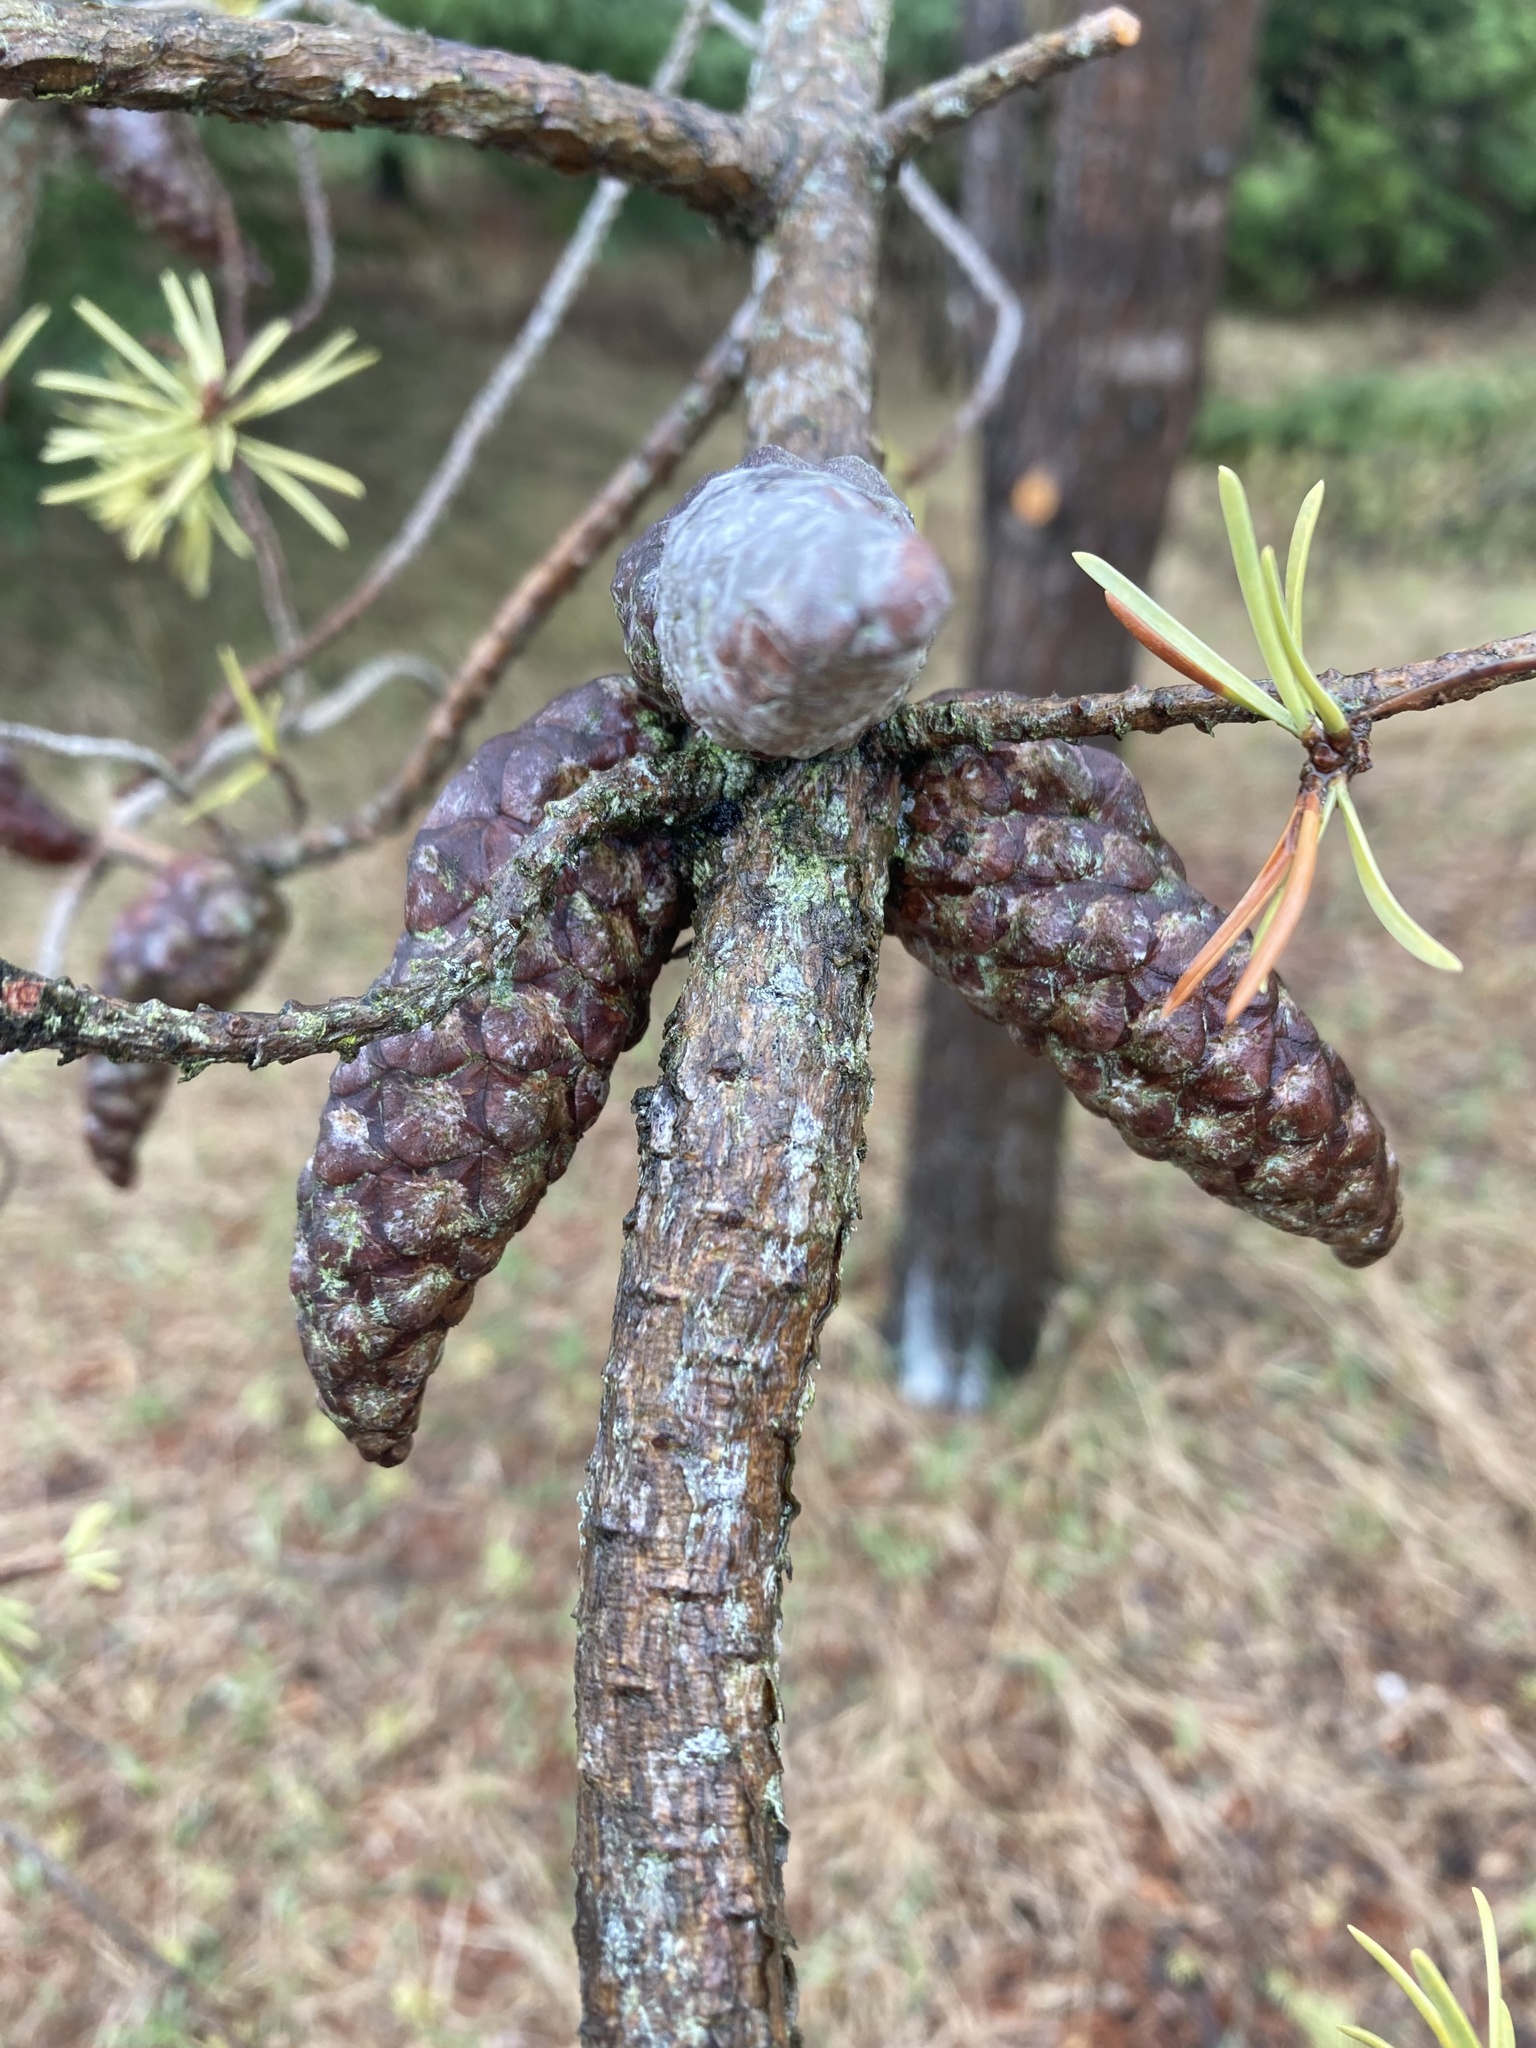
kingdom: Plantae
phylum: Tracheophyta
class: Pinopsida
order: Pinales
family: Pinaceae
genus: Pinus
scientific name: Pinus banksiana
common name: Jack pine
